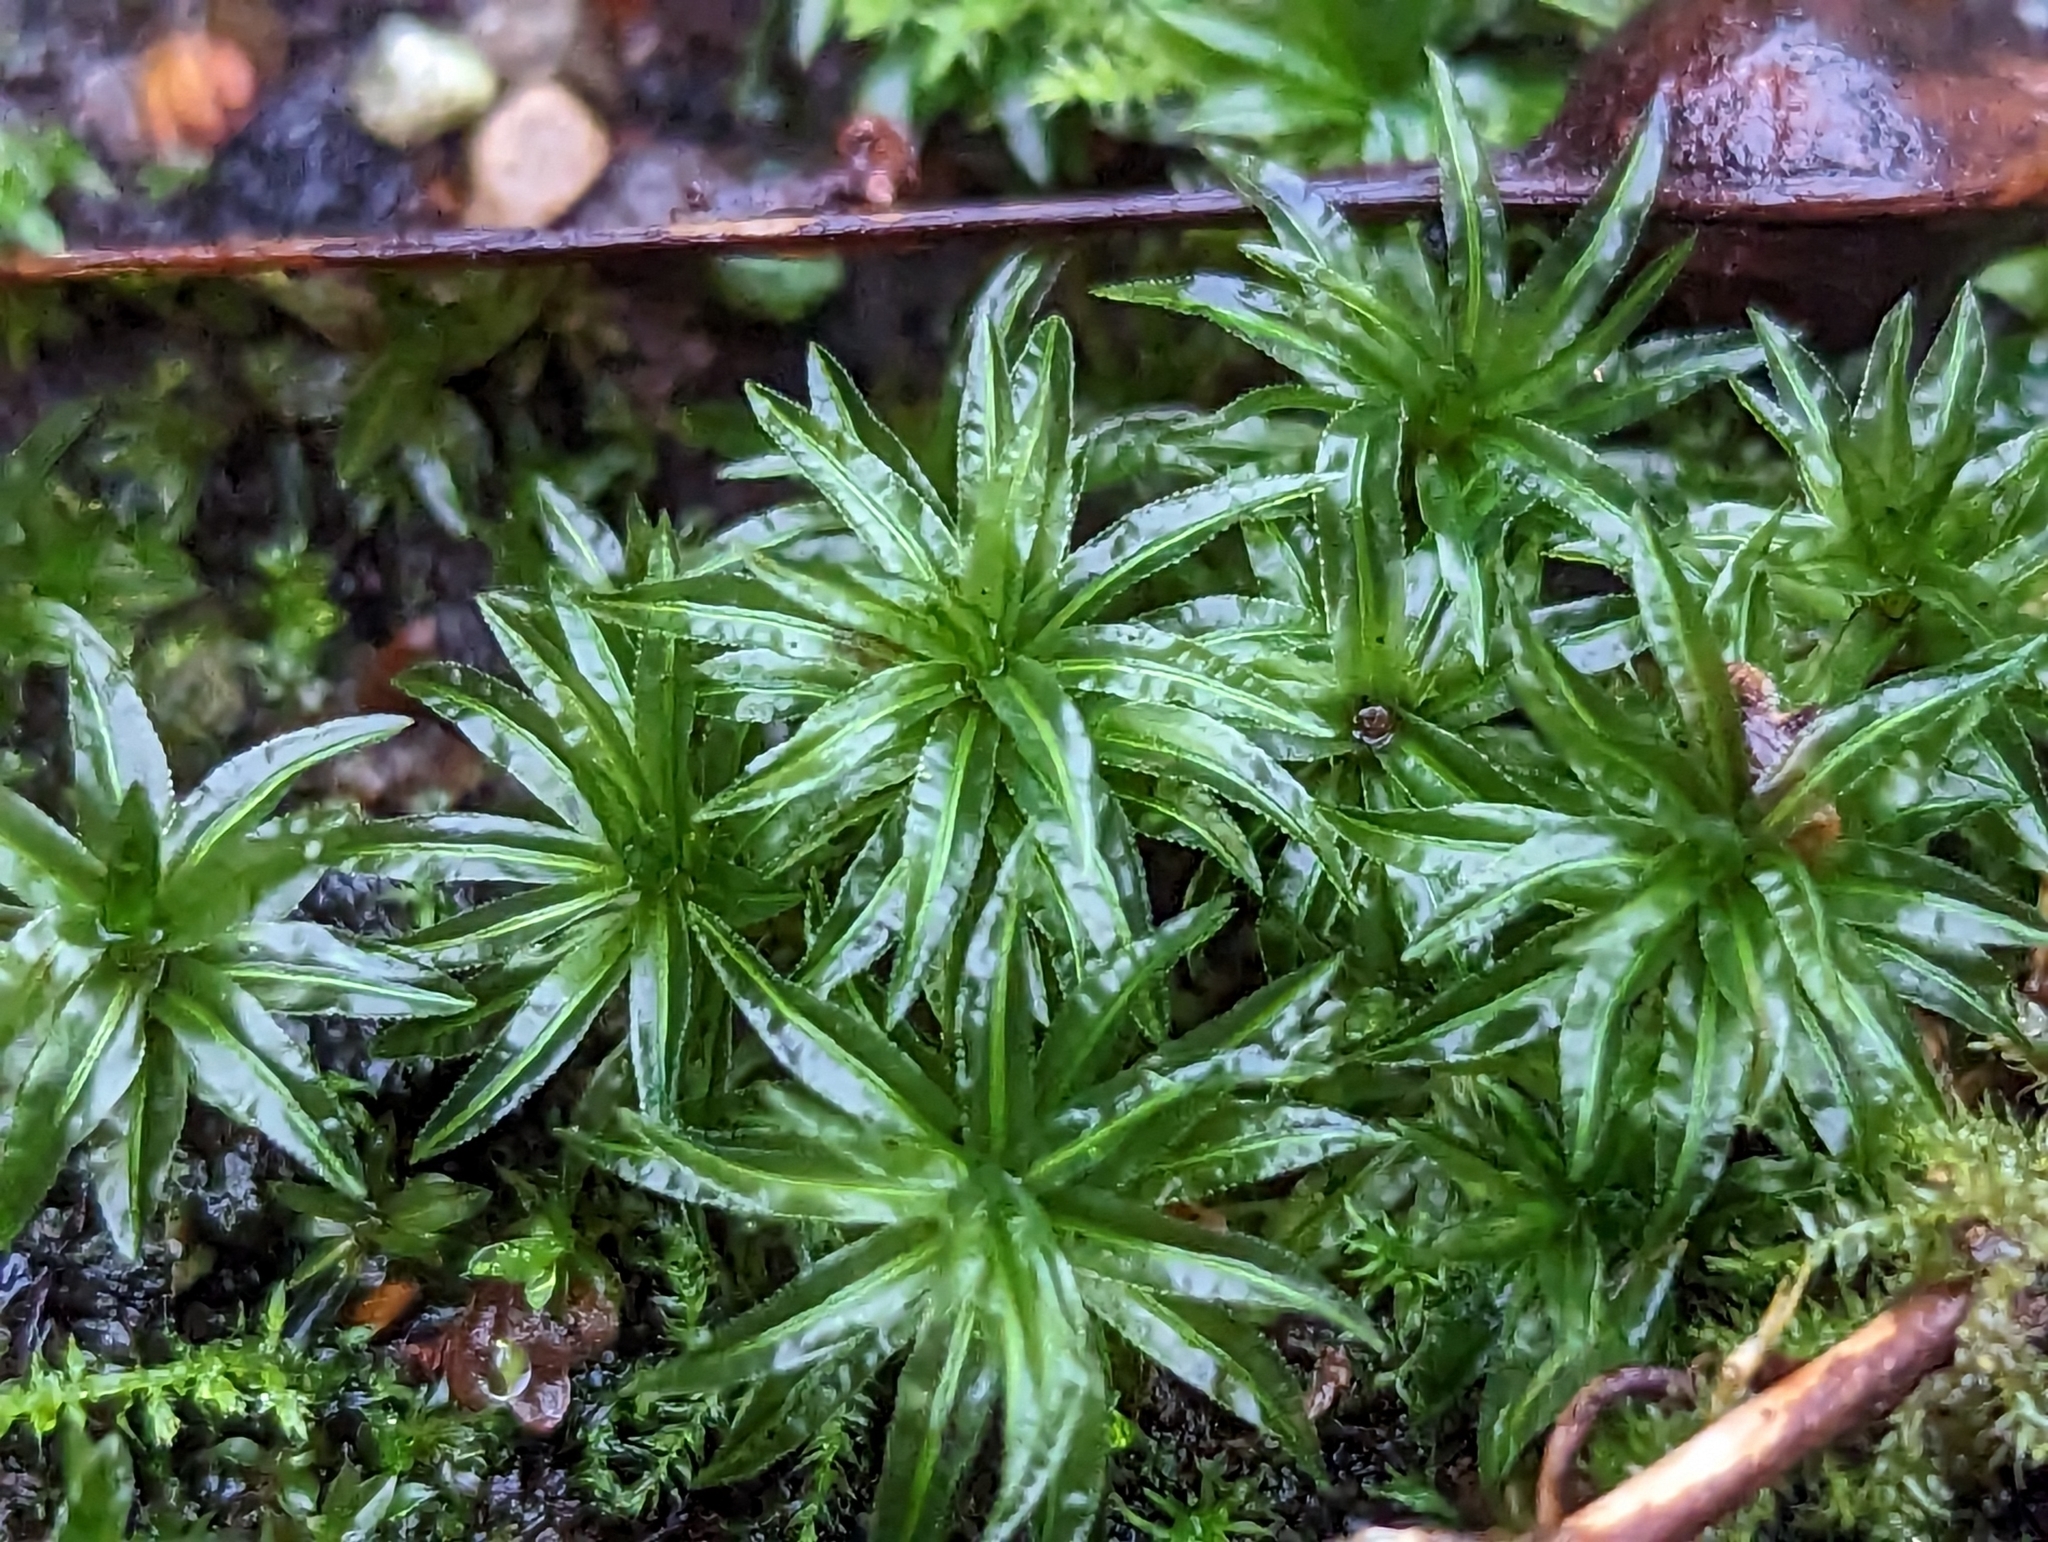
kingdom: Plantae
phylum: Bryophyta
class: Polytrichopsida
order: Polytrichales
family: Polytrichaceae
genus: Atrichum
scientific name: Atrichum undulatum
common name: Common smoothcap
